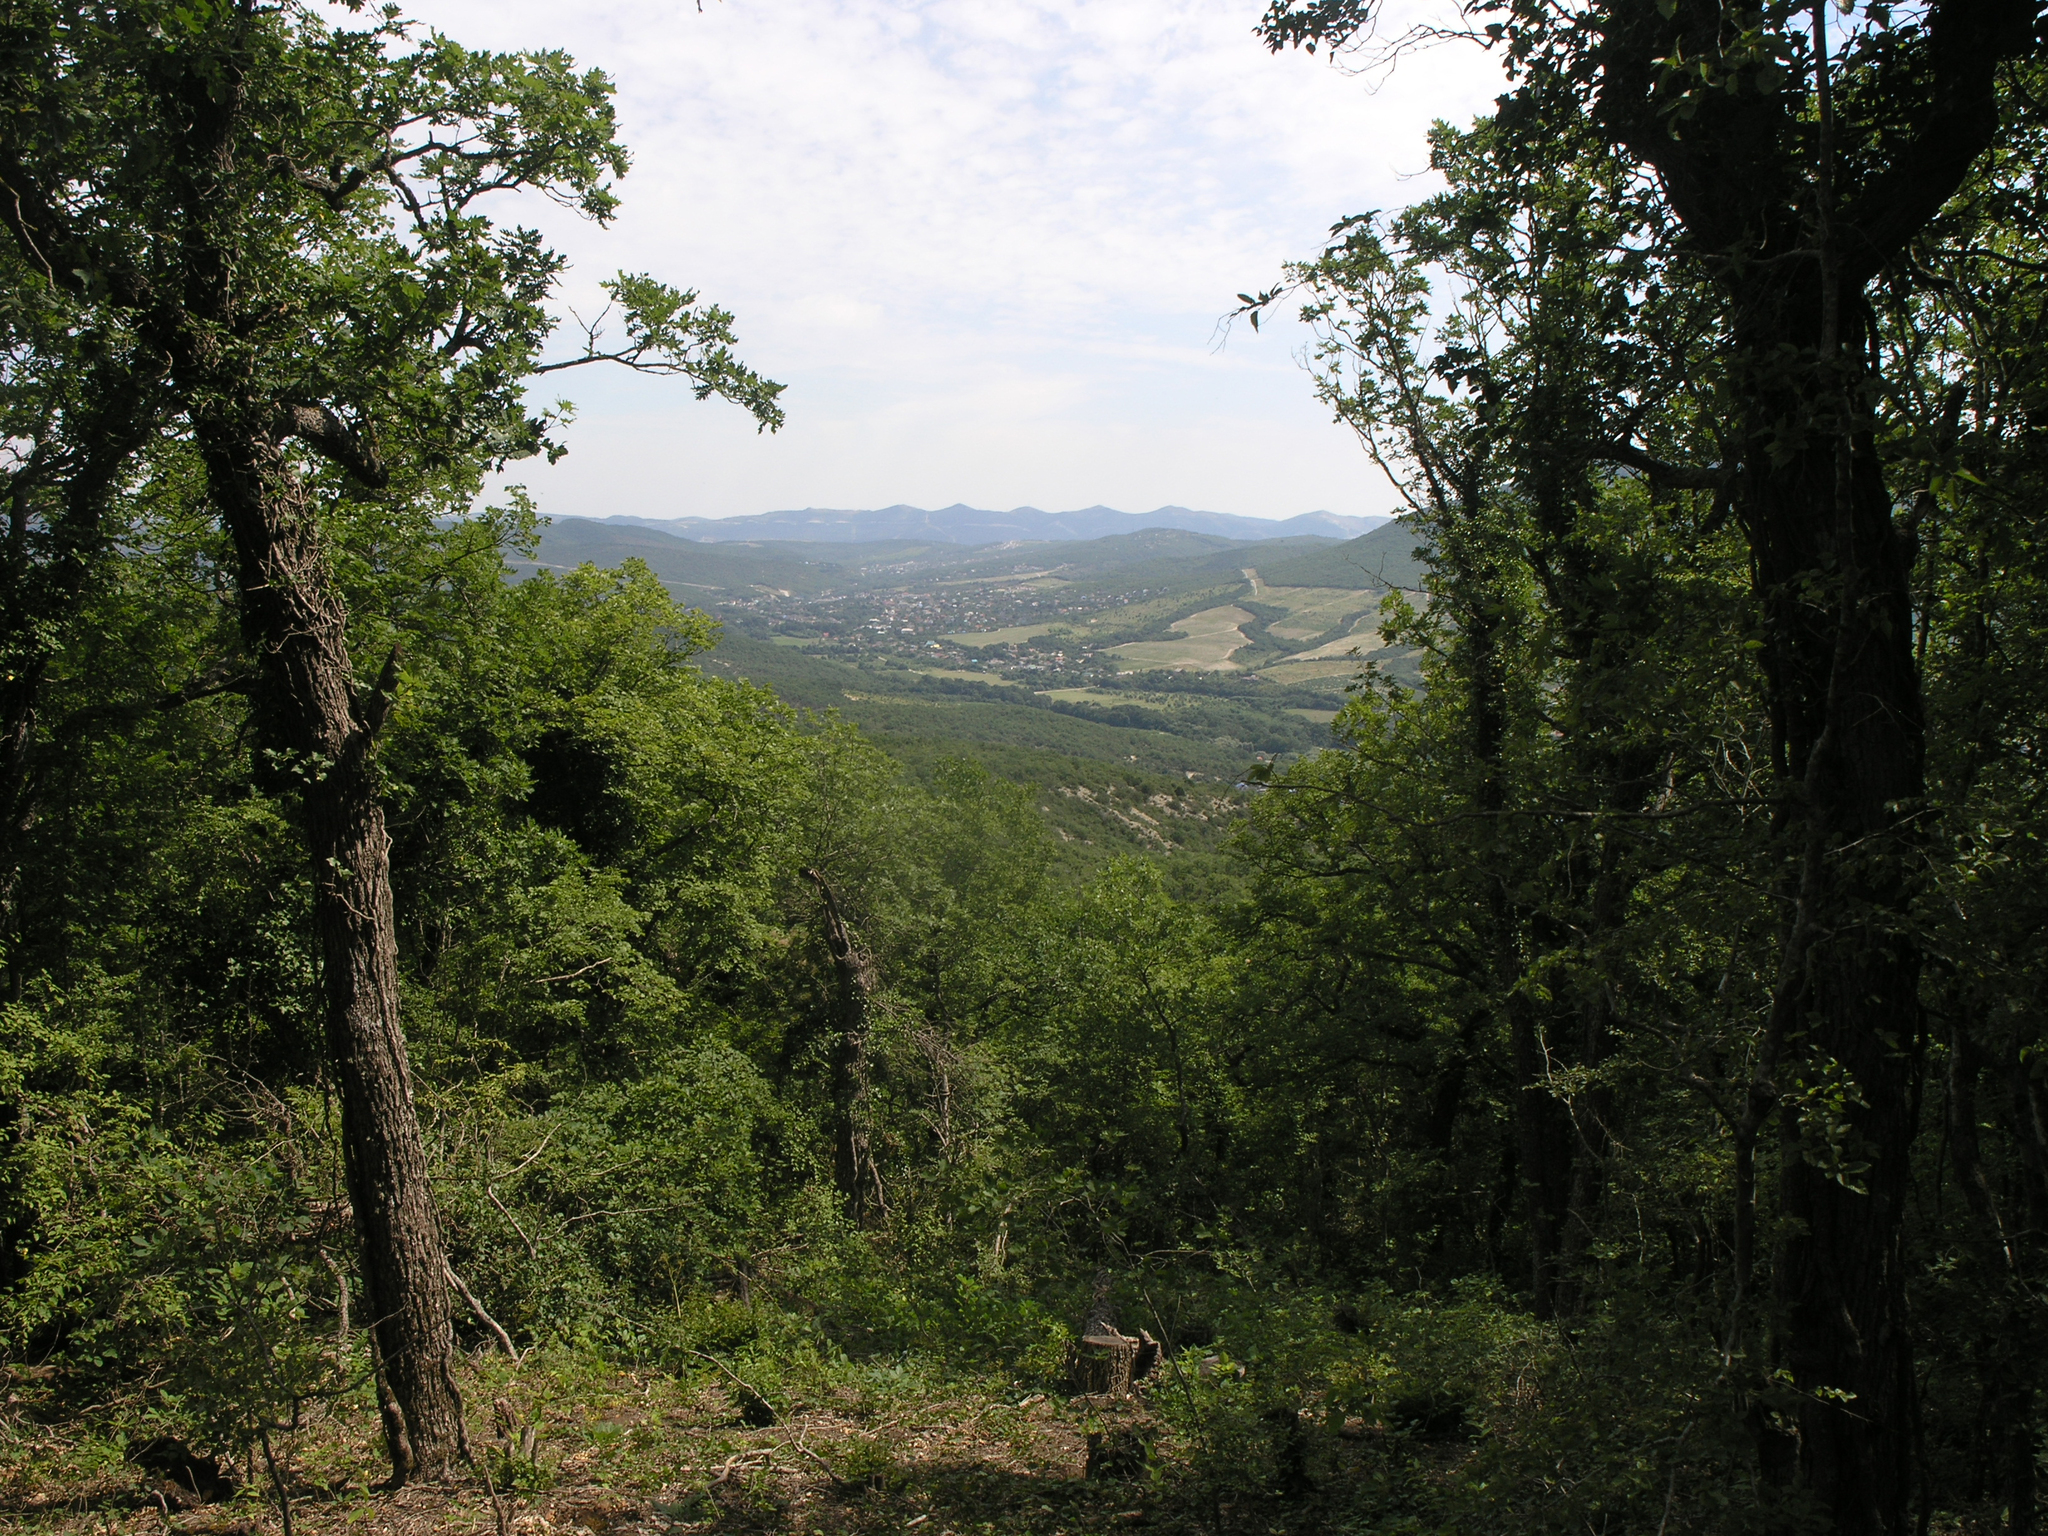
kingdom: Plantae
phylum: Tracheophyta
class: Magnoliopsida
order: Fagales
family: Fagaceae
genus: Quercus
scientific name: Quercus pubescens
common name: Downy oak
